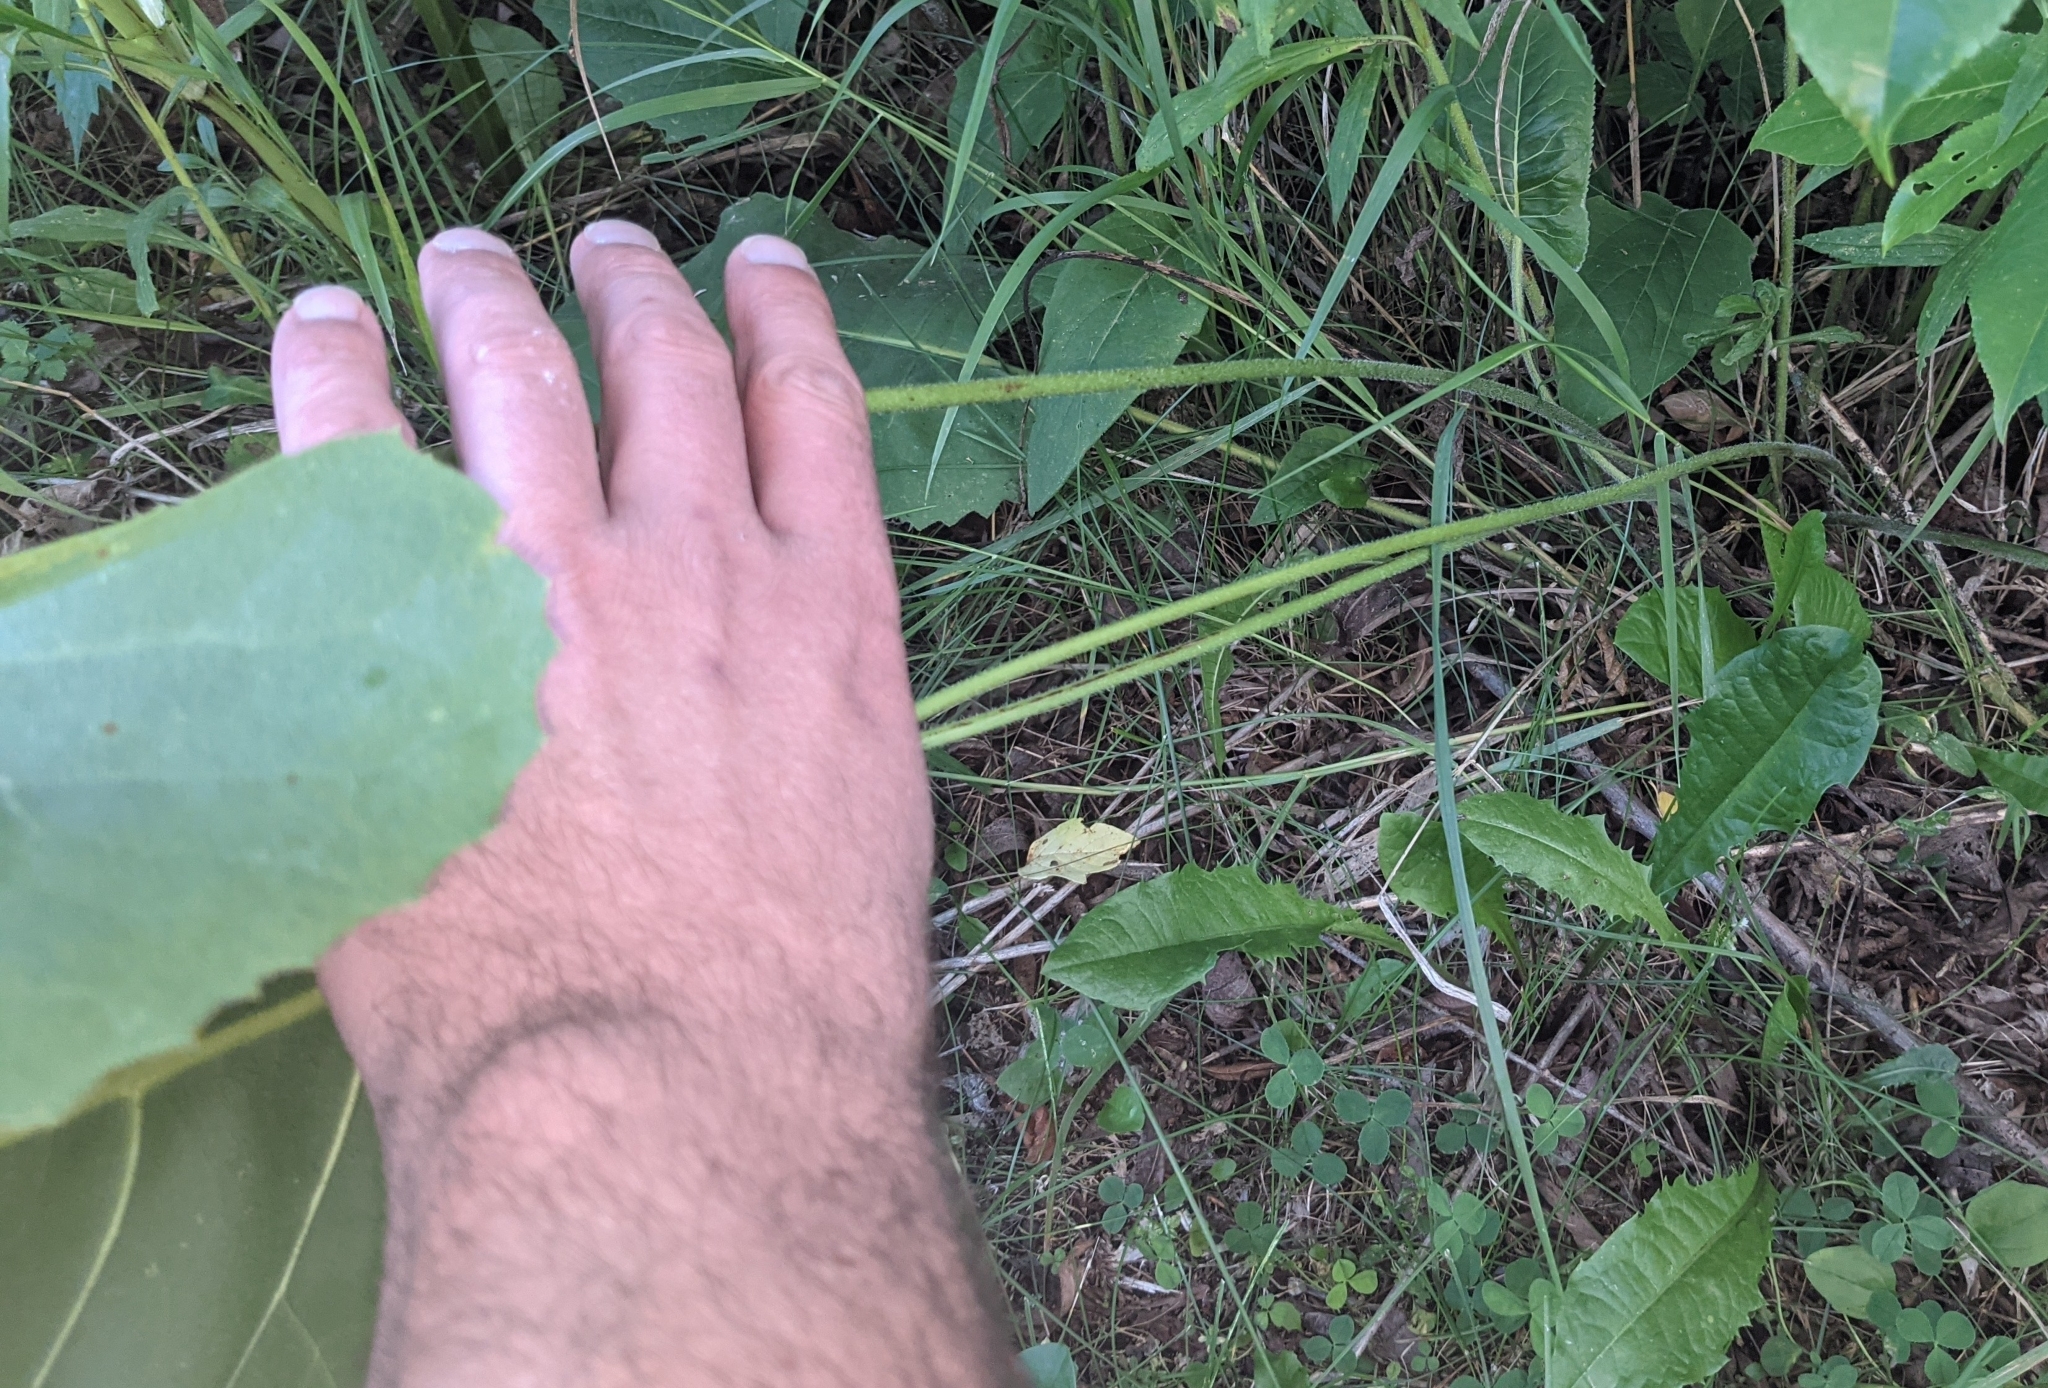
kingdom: Plantae
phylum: Tracheophyta
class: Magnoliopsida
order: Asterales
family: Asteraceae
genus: Silphium
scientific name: Silphium terebinthinaceum
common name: Basal-leaf rosinweed
